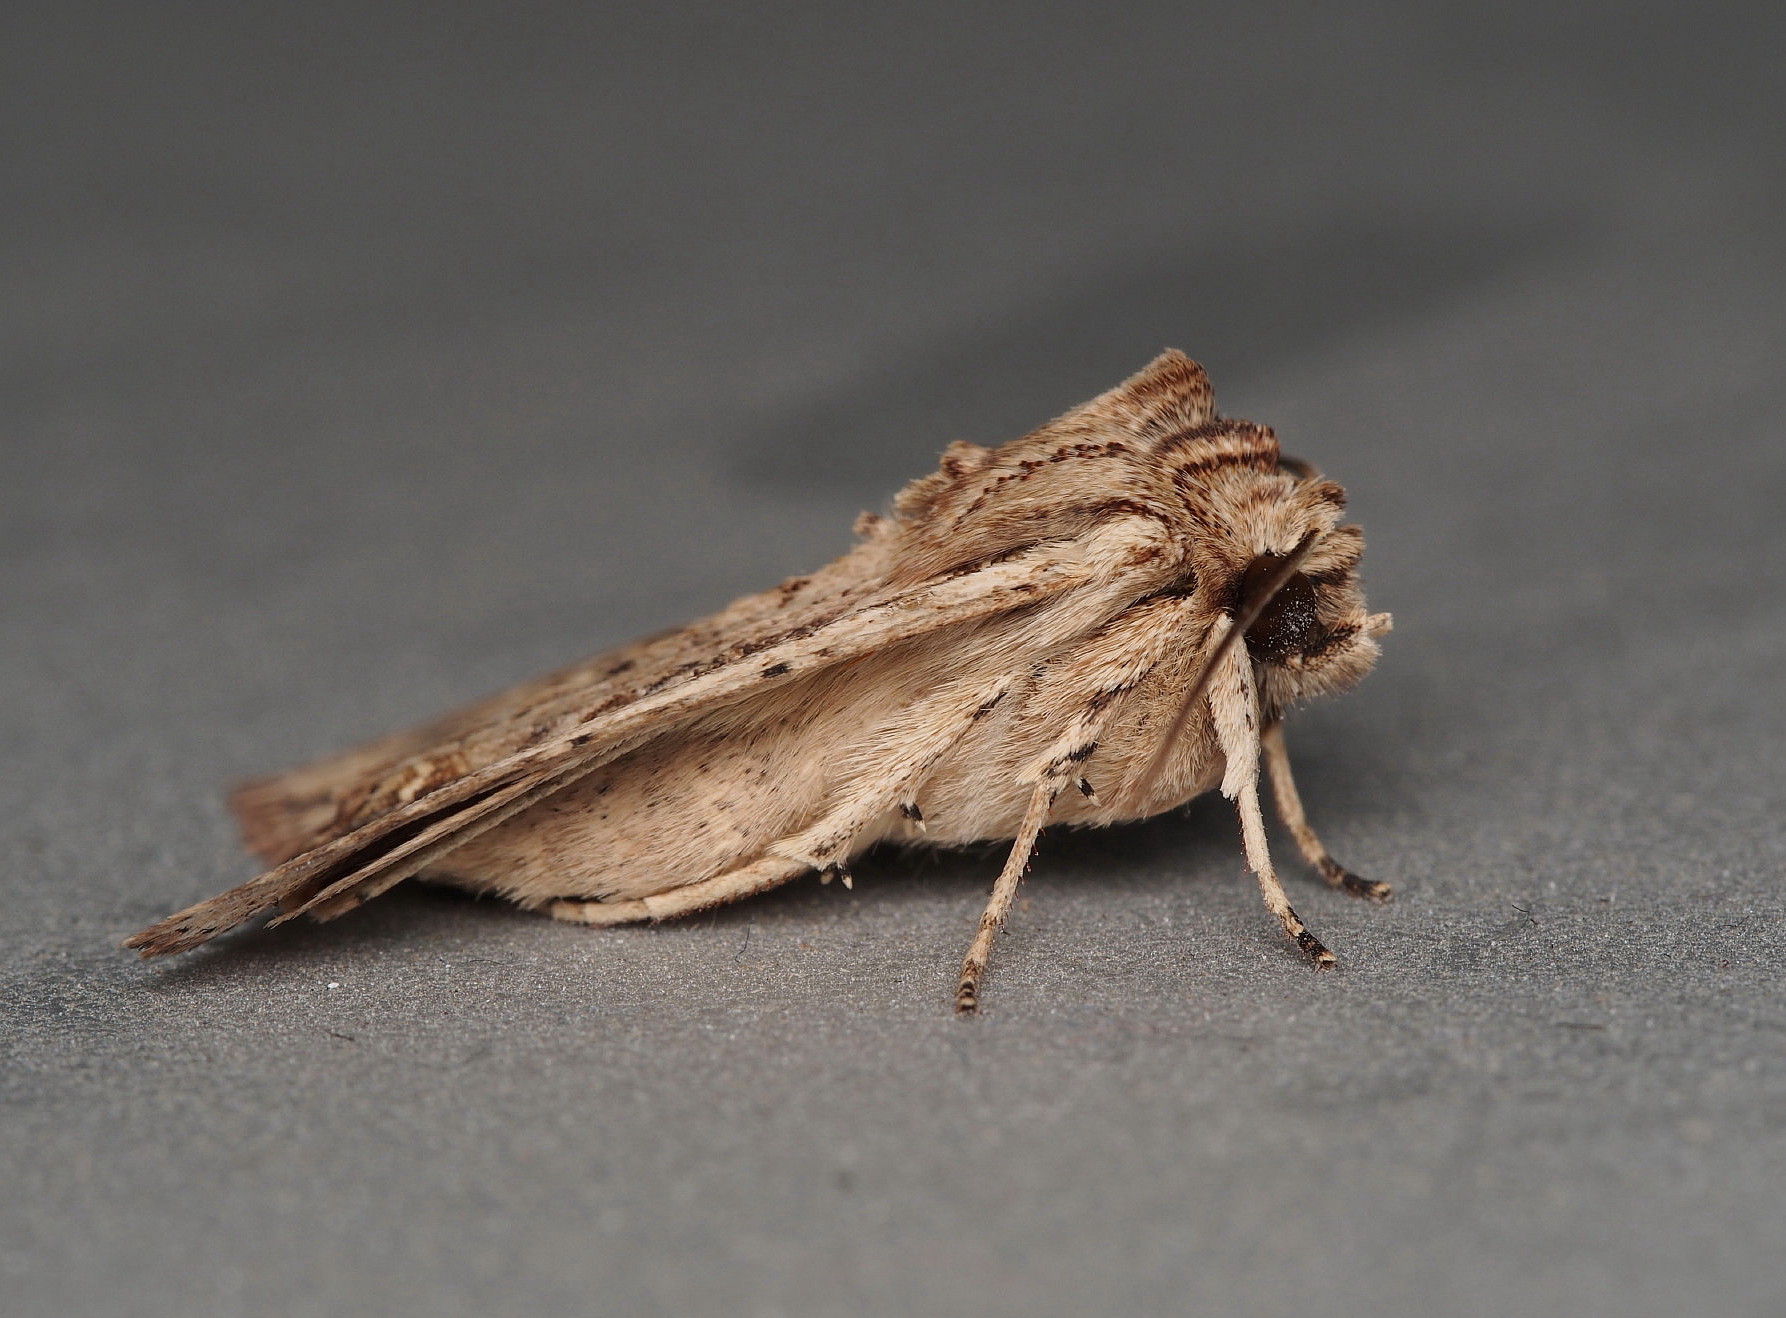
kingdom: Animalia
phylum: Arthropoda
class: Insecta
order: Lepidoptera
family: Noctuidae
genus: Ichneutica
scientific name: Ichneutica lignana
